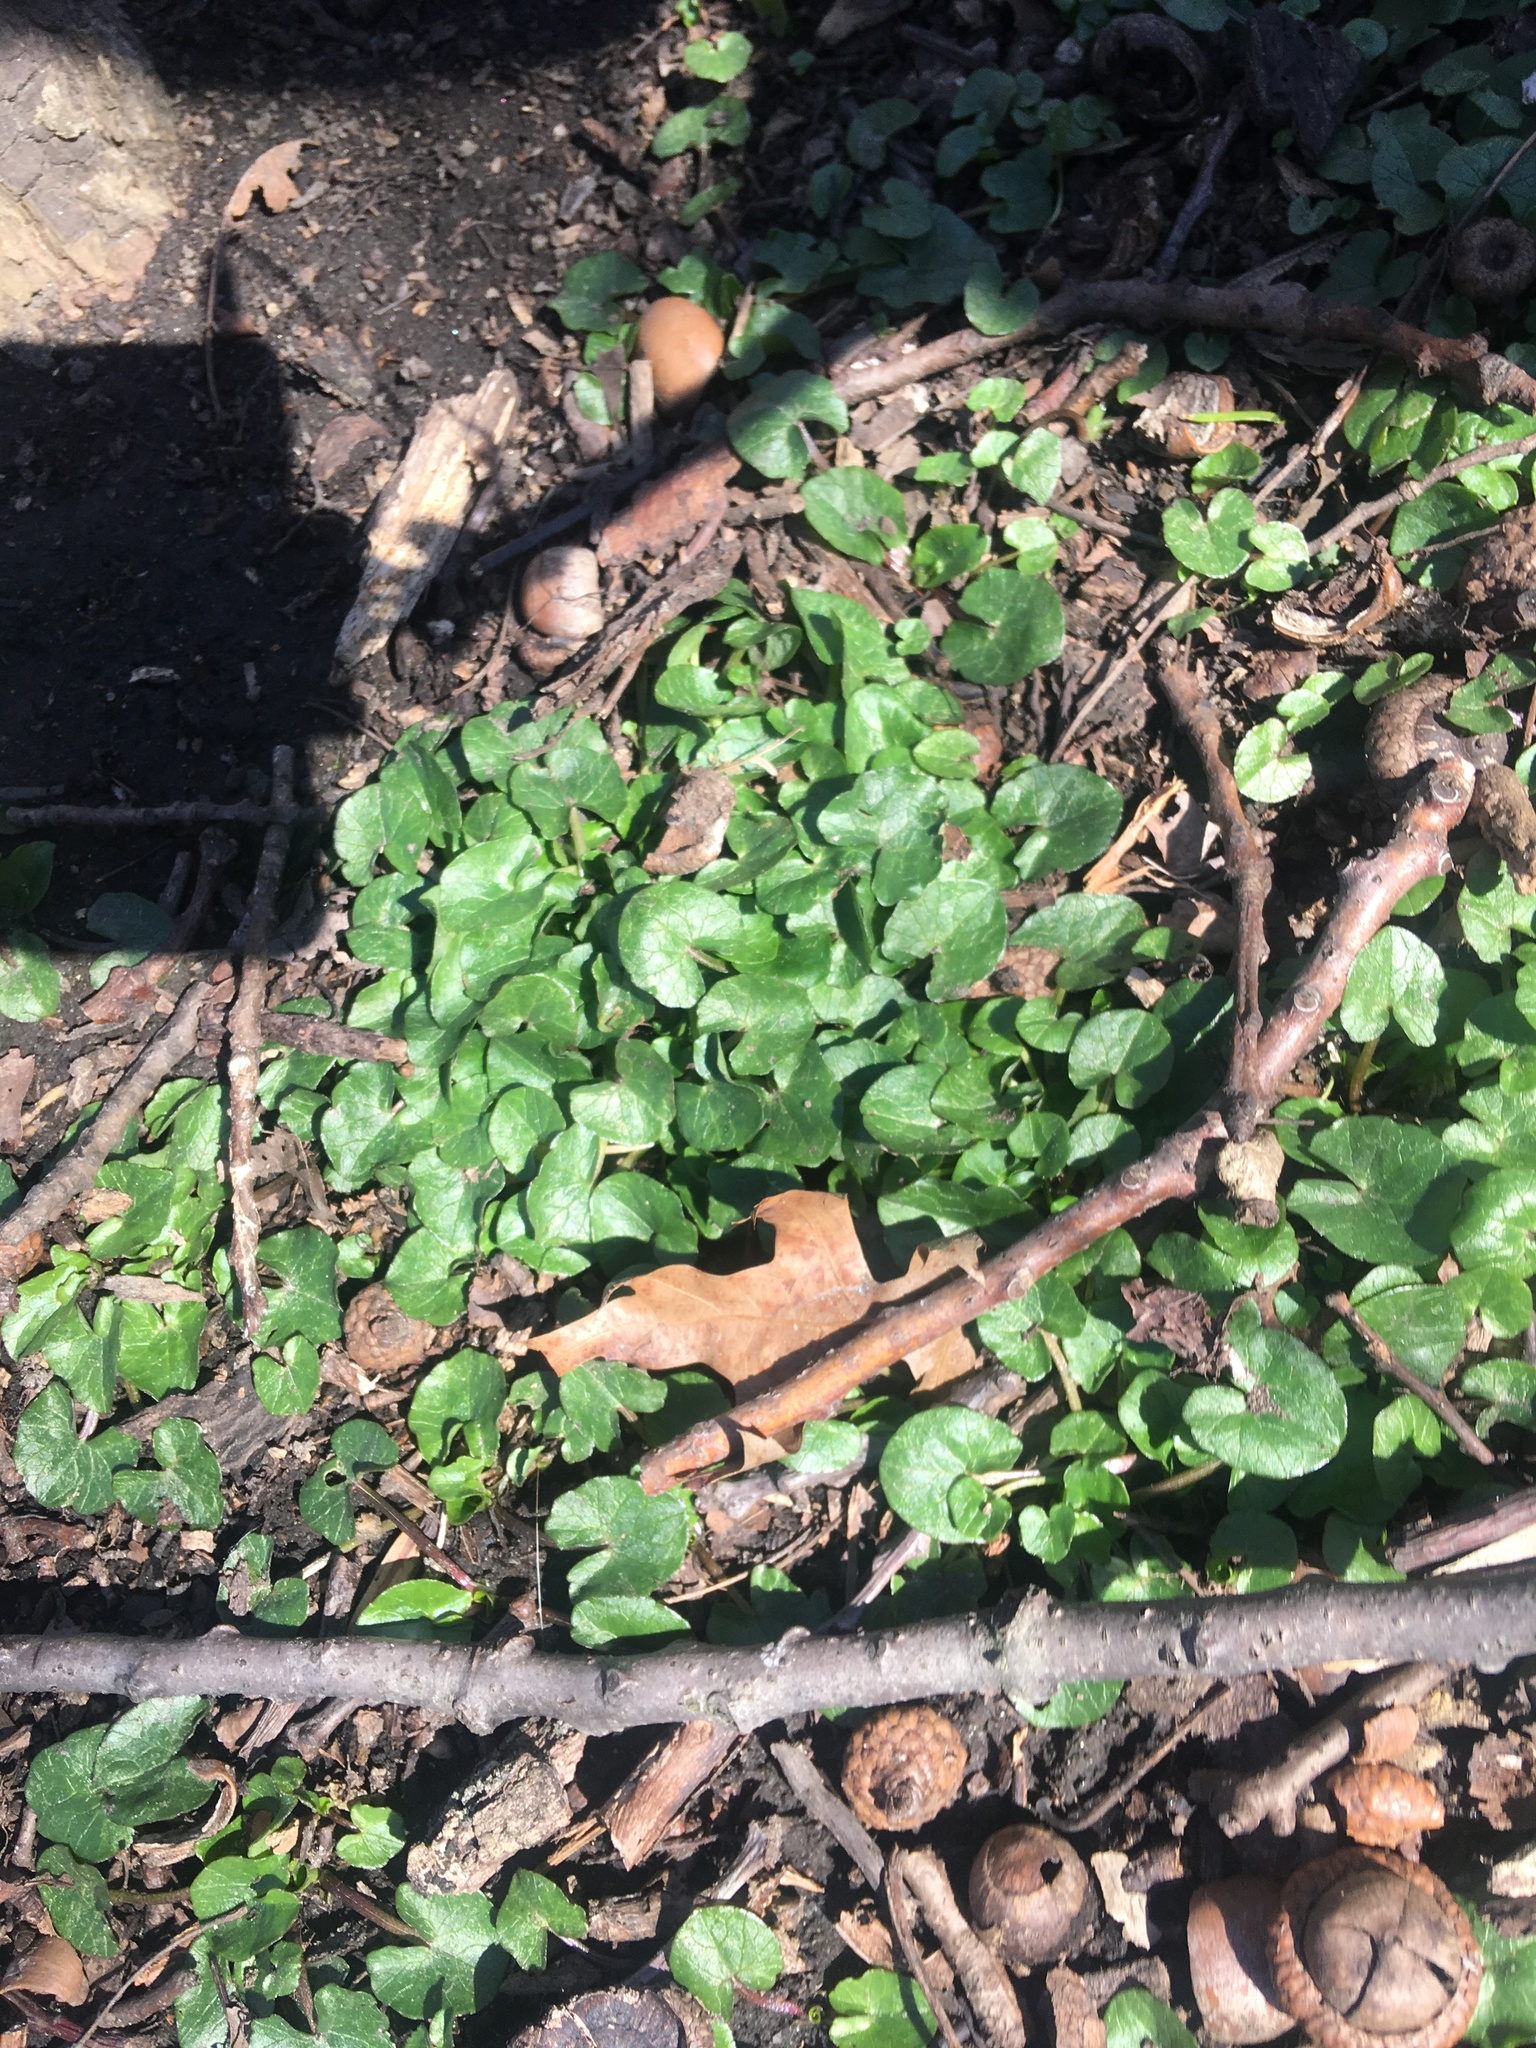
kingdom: Plantae
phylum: Tracheophyta
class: Magnoliopsida
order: Ranunculales
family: Ranunculaceae
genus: Ficaria
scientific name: Ficaria verna
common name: Lesser celandine
